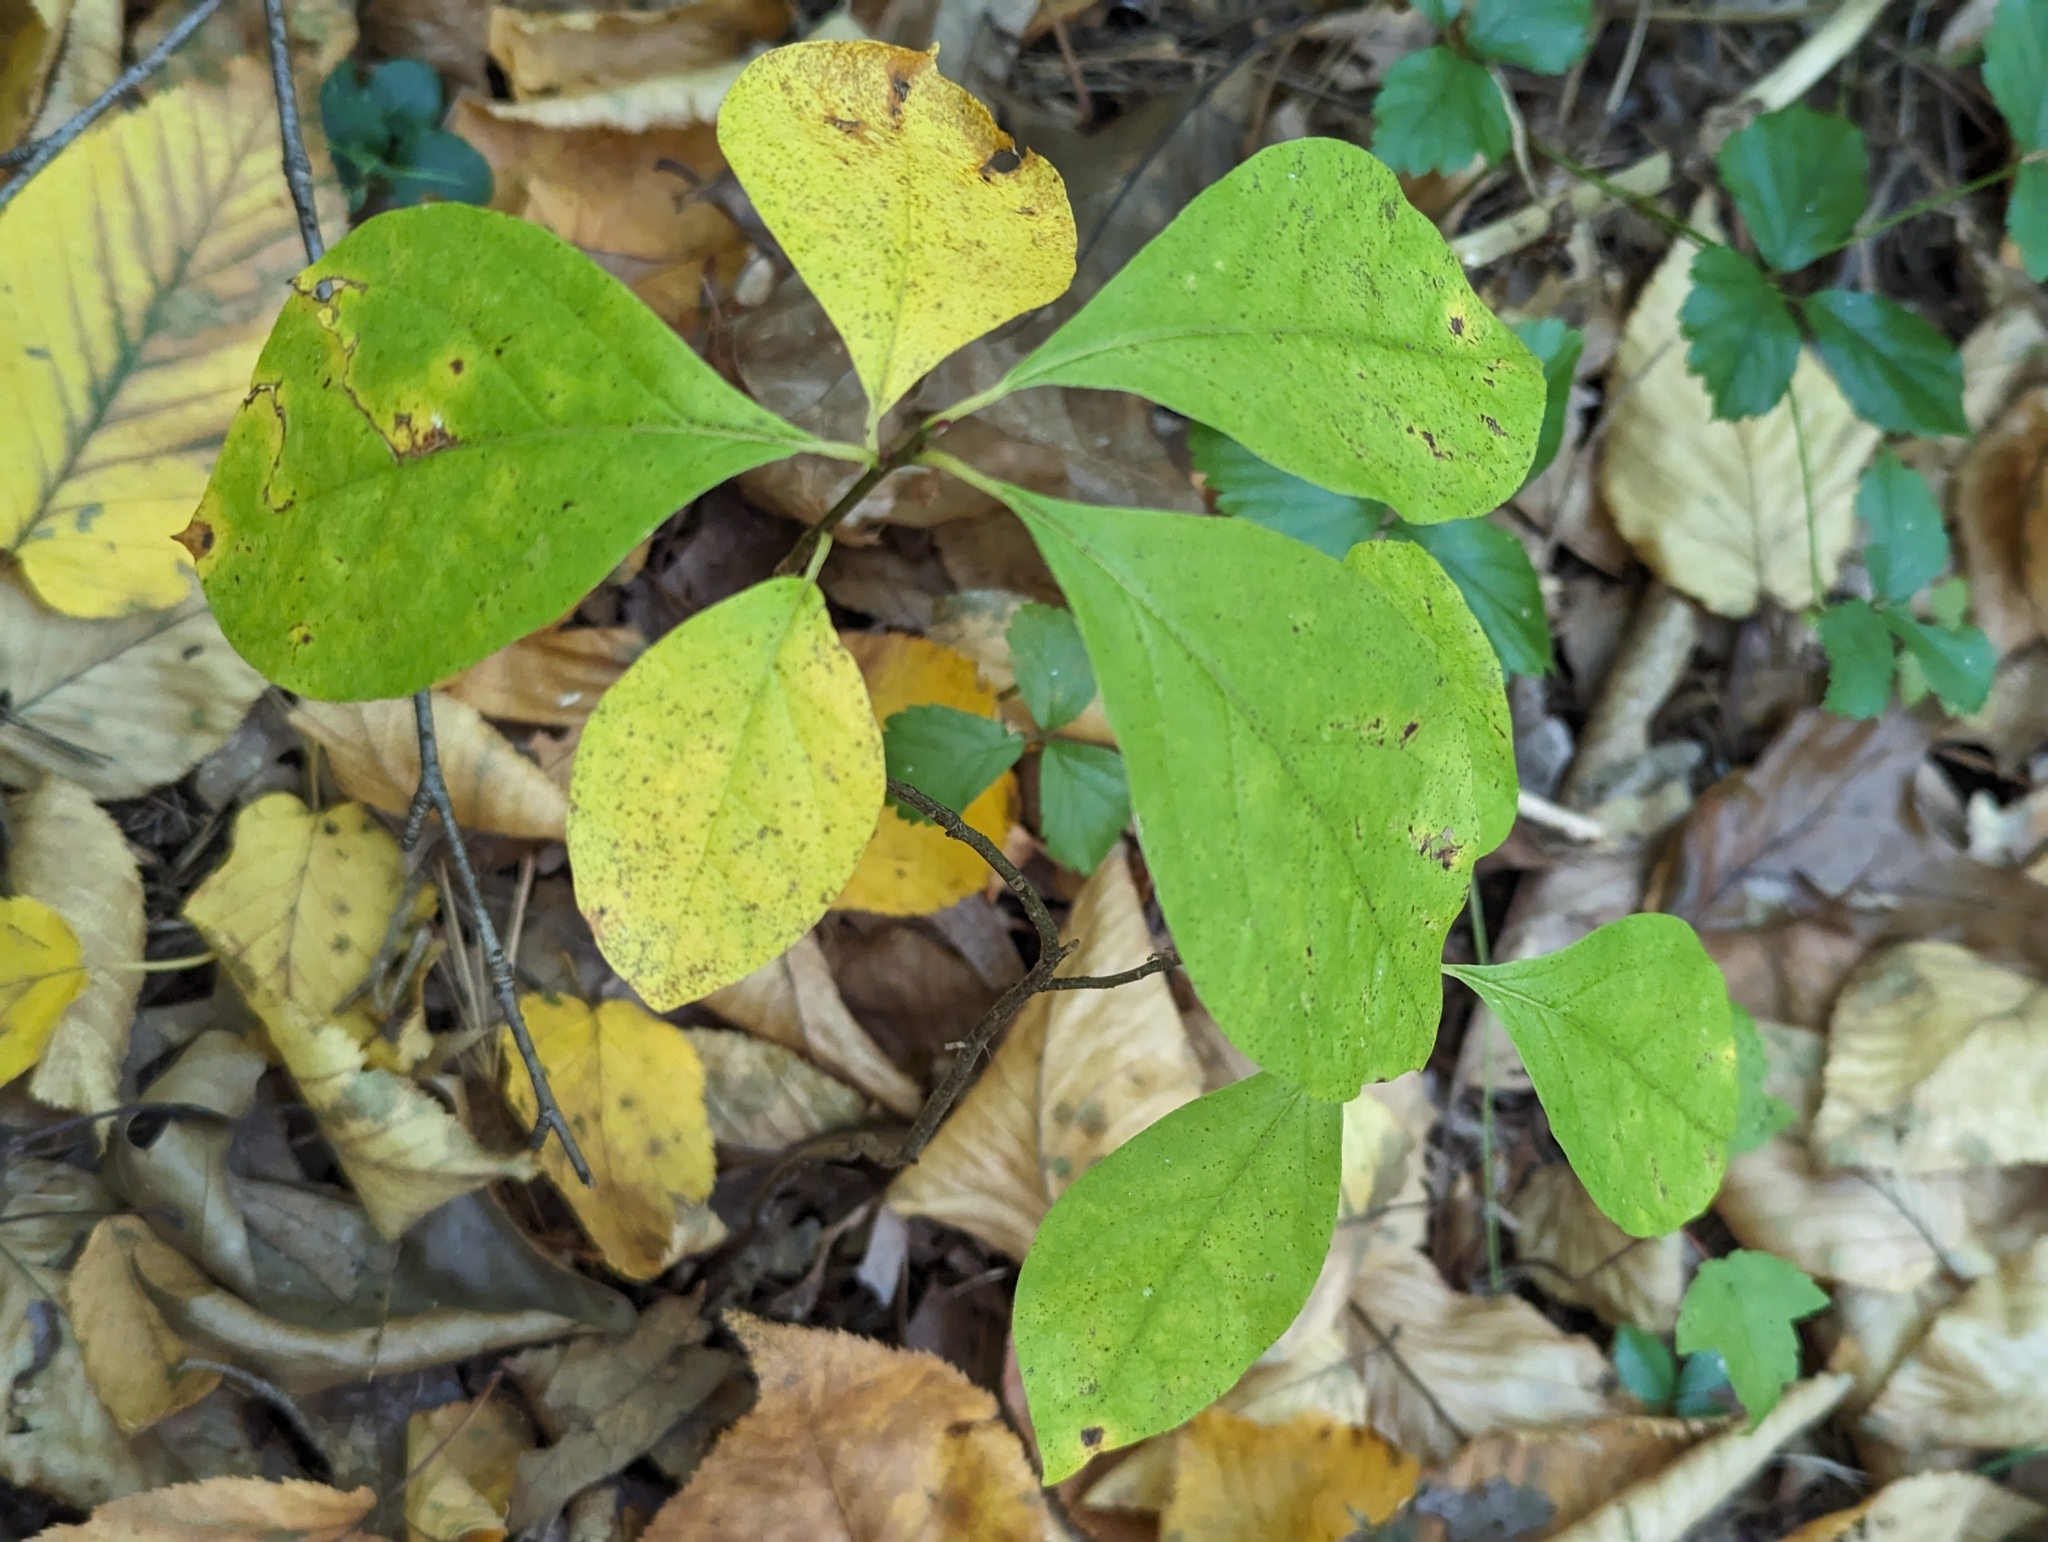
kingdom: Plantae
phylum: Tracheophyta
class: Magnoliopsida
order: Laurales
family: Lauraceae
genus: Lindera
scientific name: Lindera benzoin
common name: Spicebush
